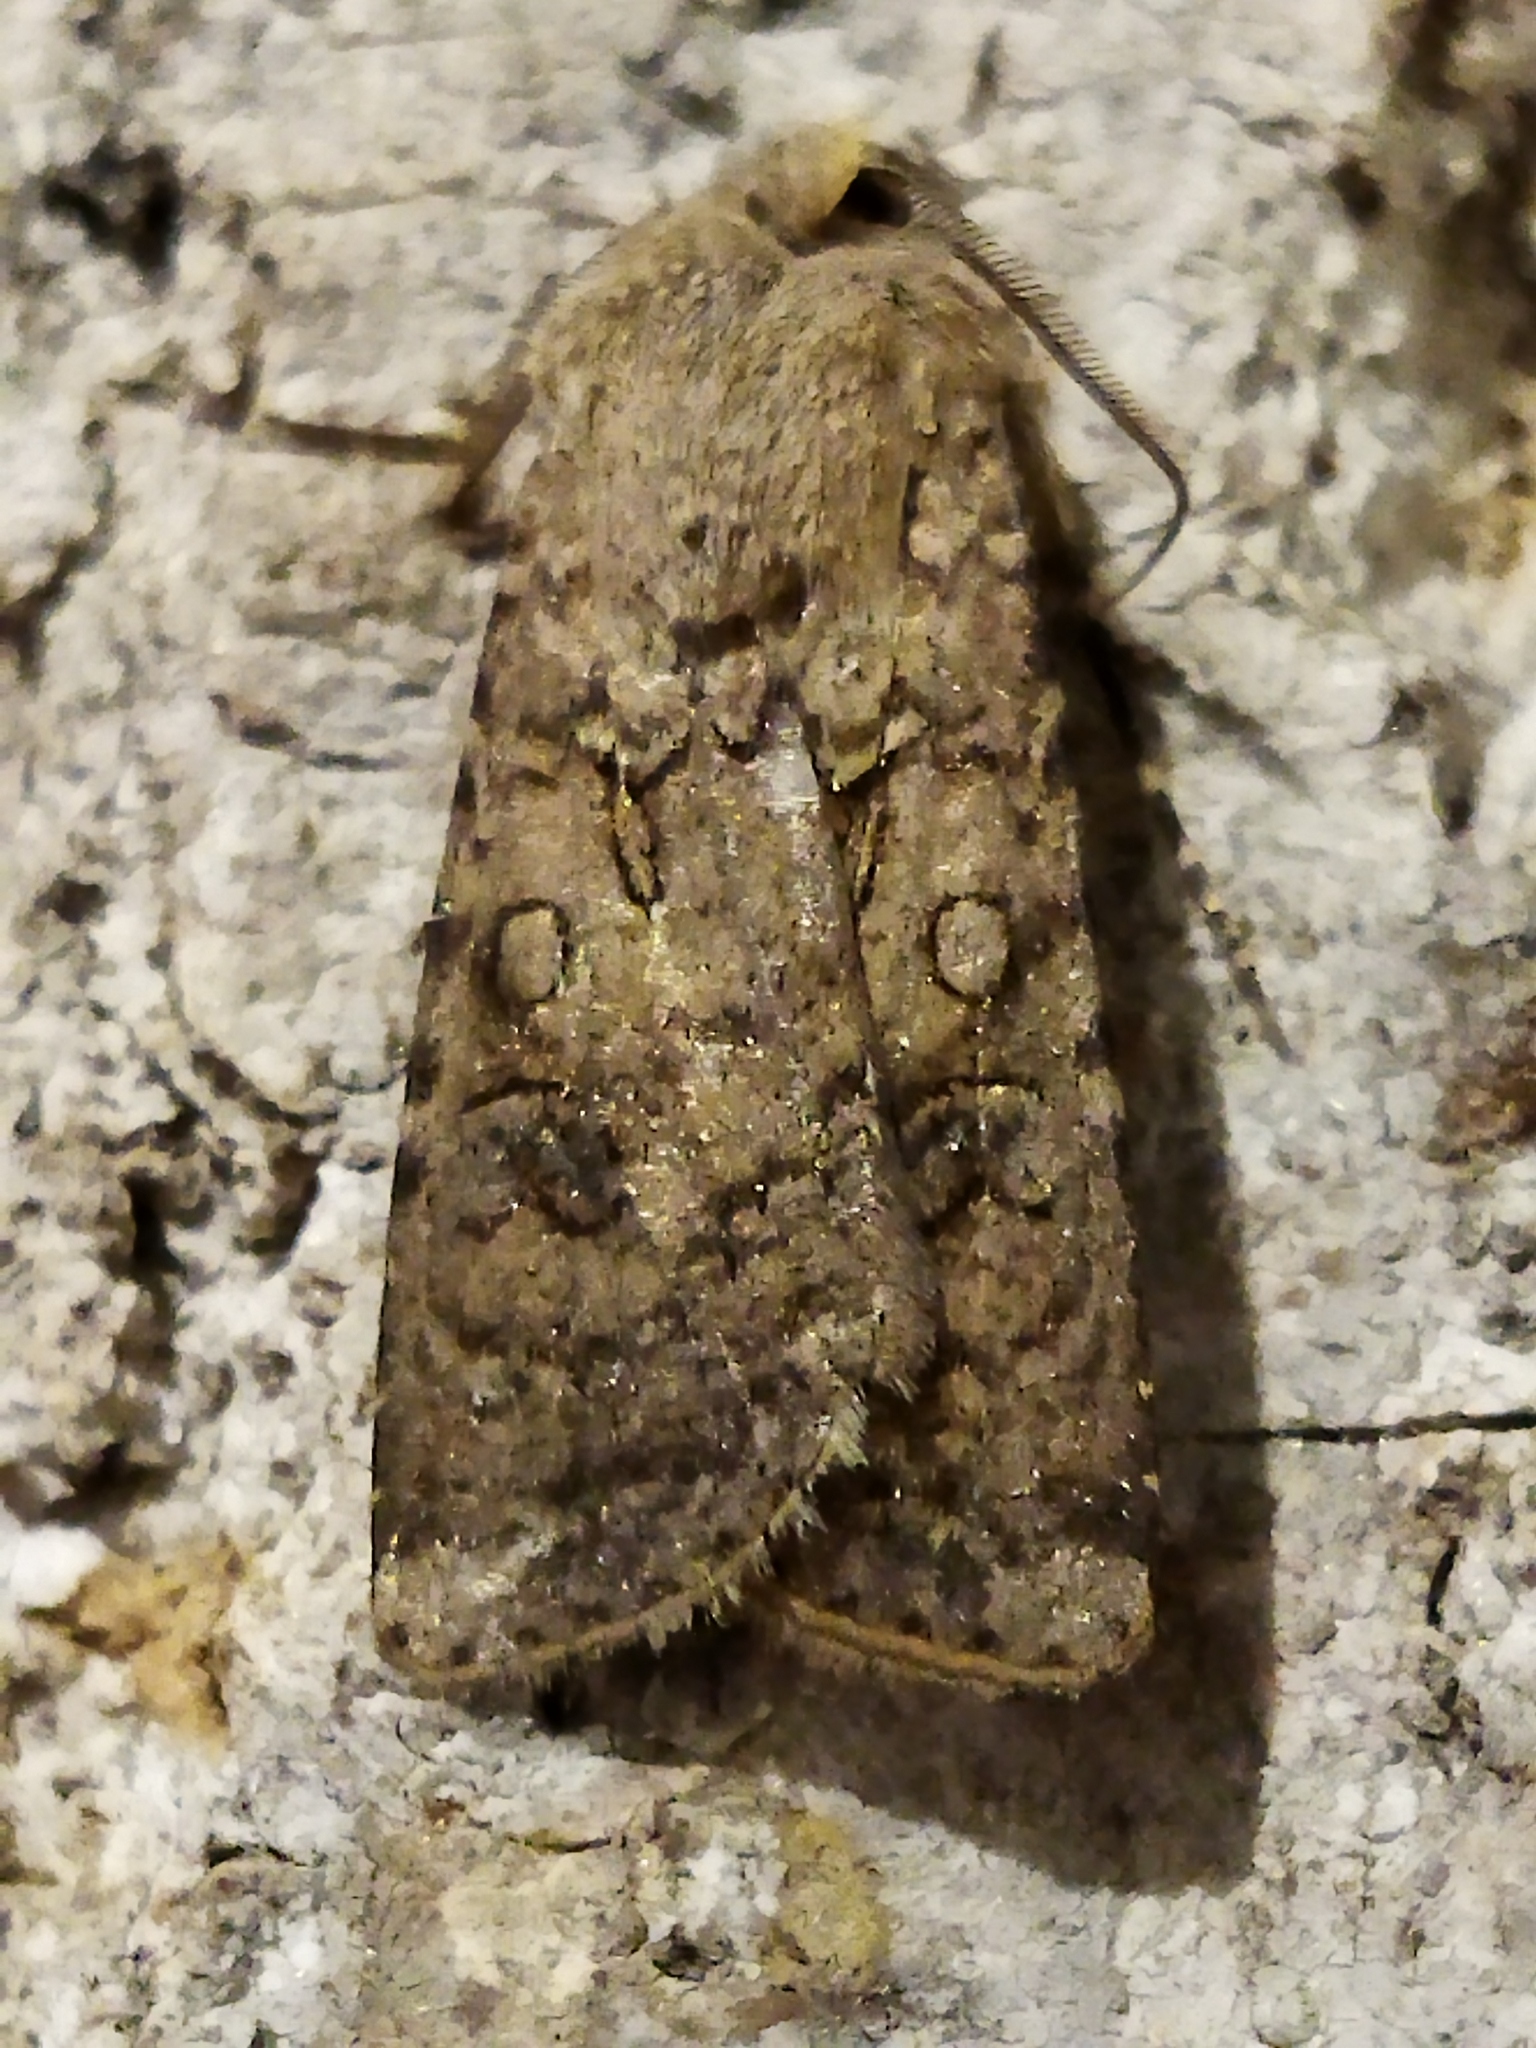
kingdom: Animalia
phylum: Arthropoda
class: Insecta
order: Lepidoptera
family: Noctuidae
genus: Agrotis
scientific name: Agrotis segetum
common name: Turnip moth
